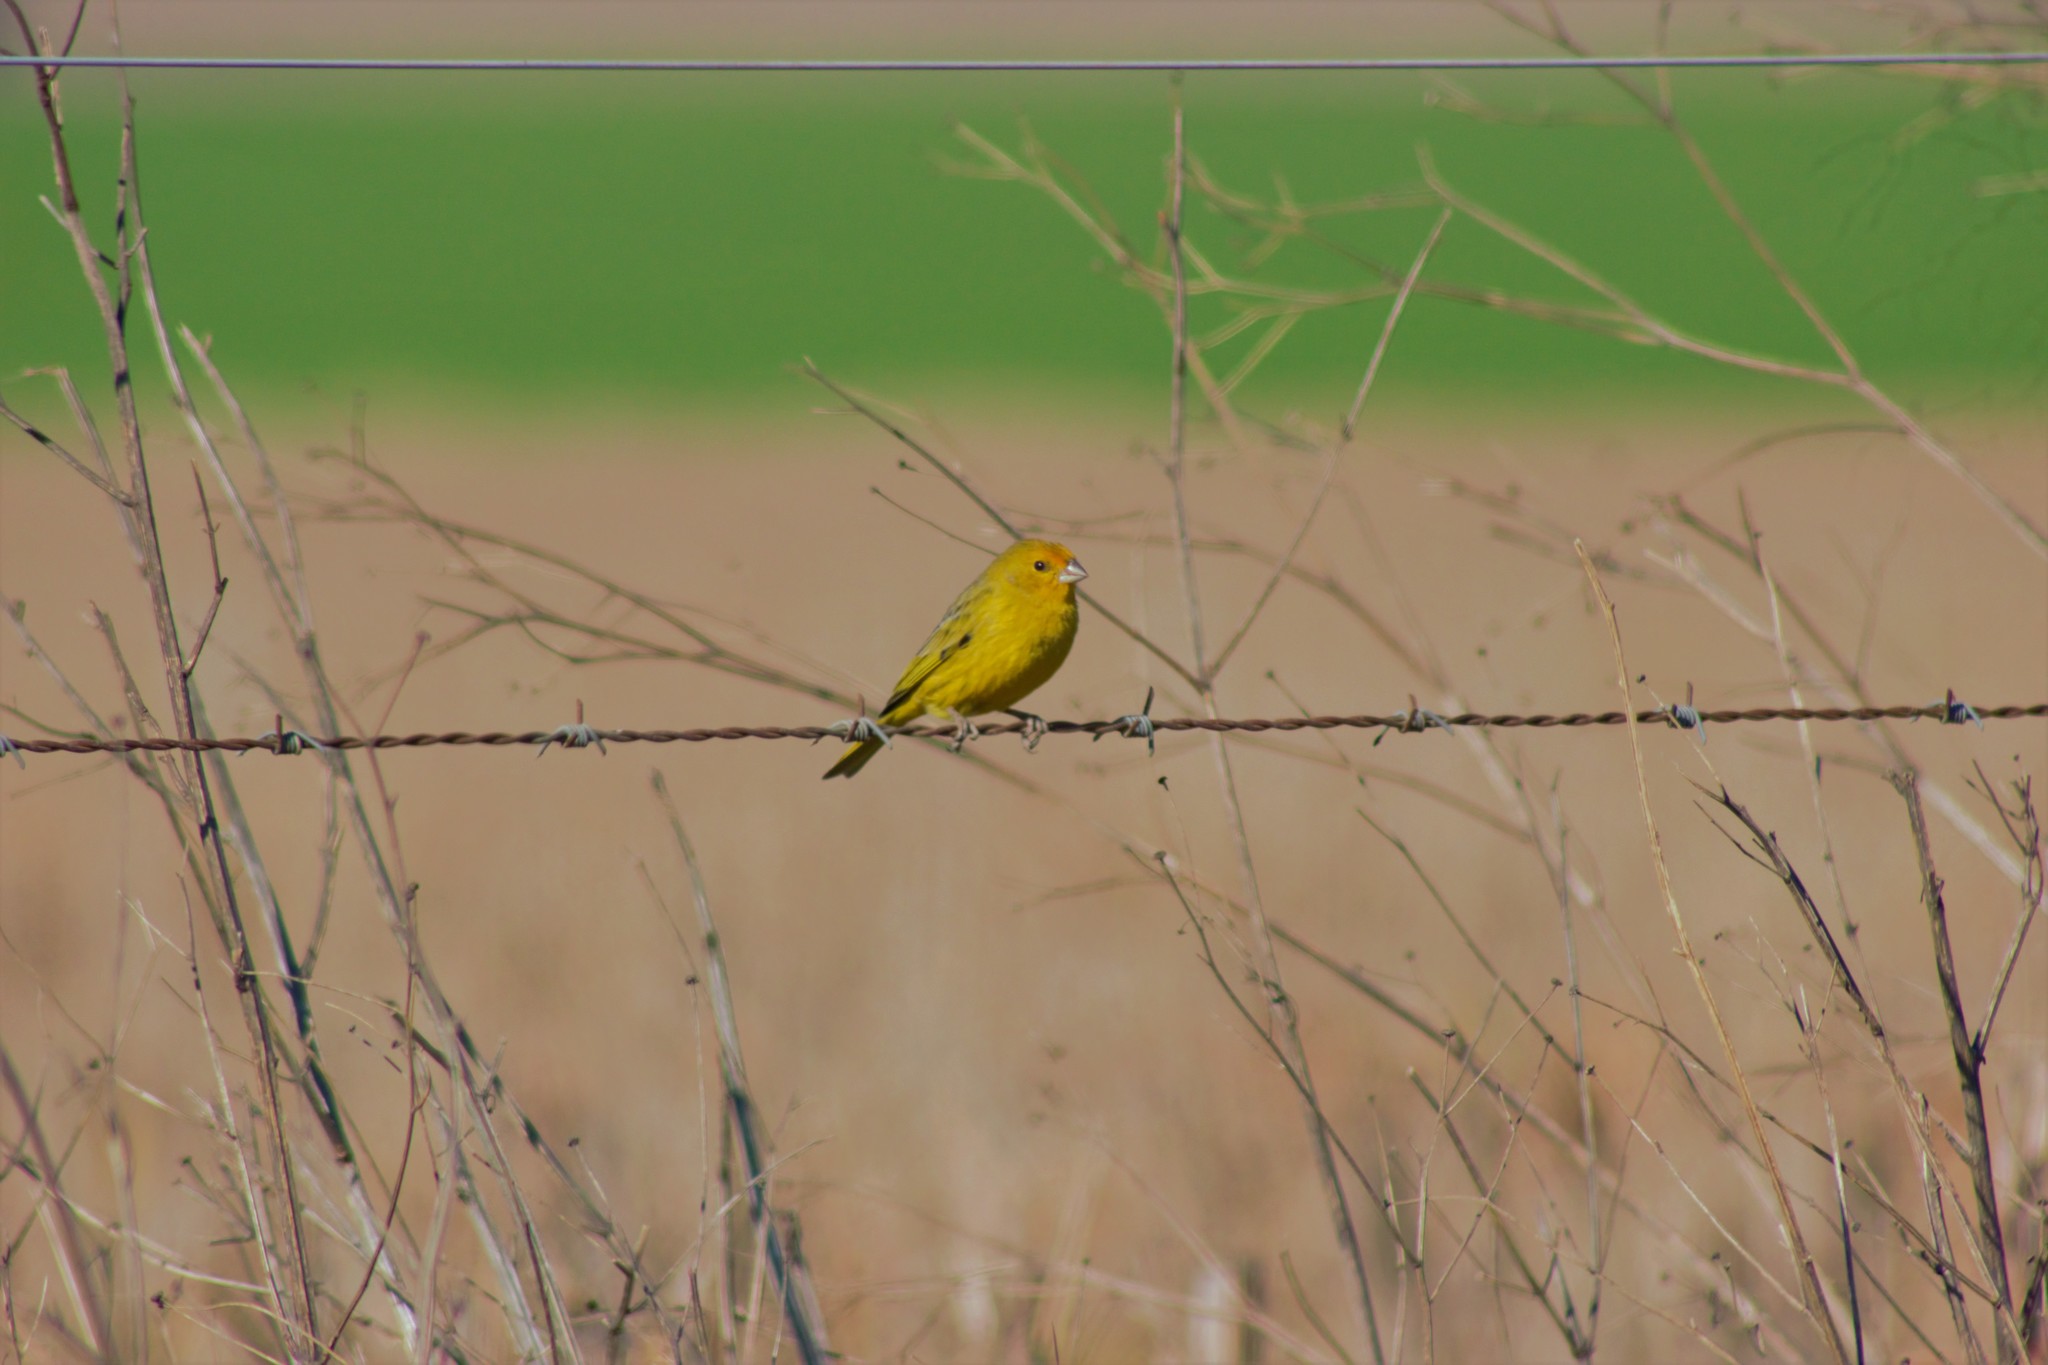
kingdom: Animalia
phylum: Chordata
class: Aves
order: Passeriformes
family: Thraupidae
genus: Sicalis
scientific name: Sicalis flaveola
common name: Saffron finch
